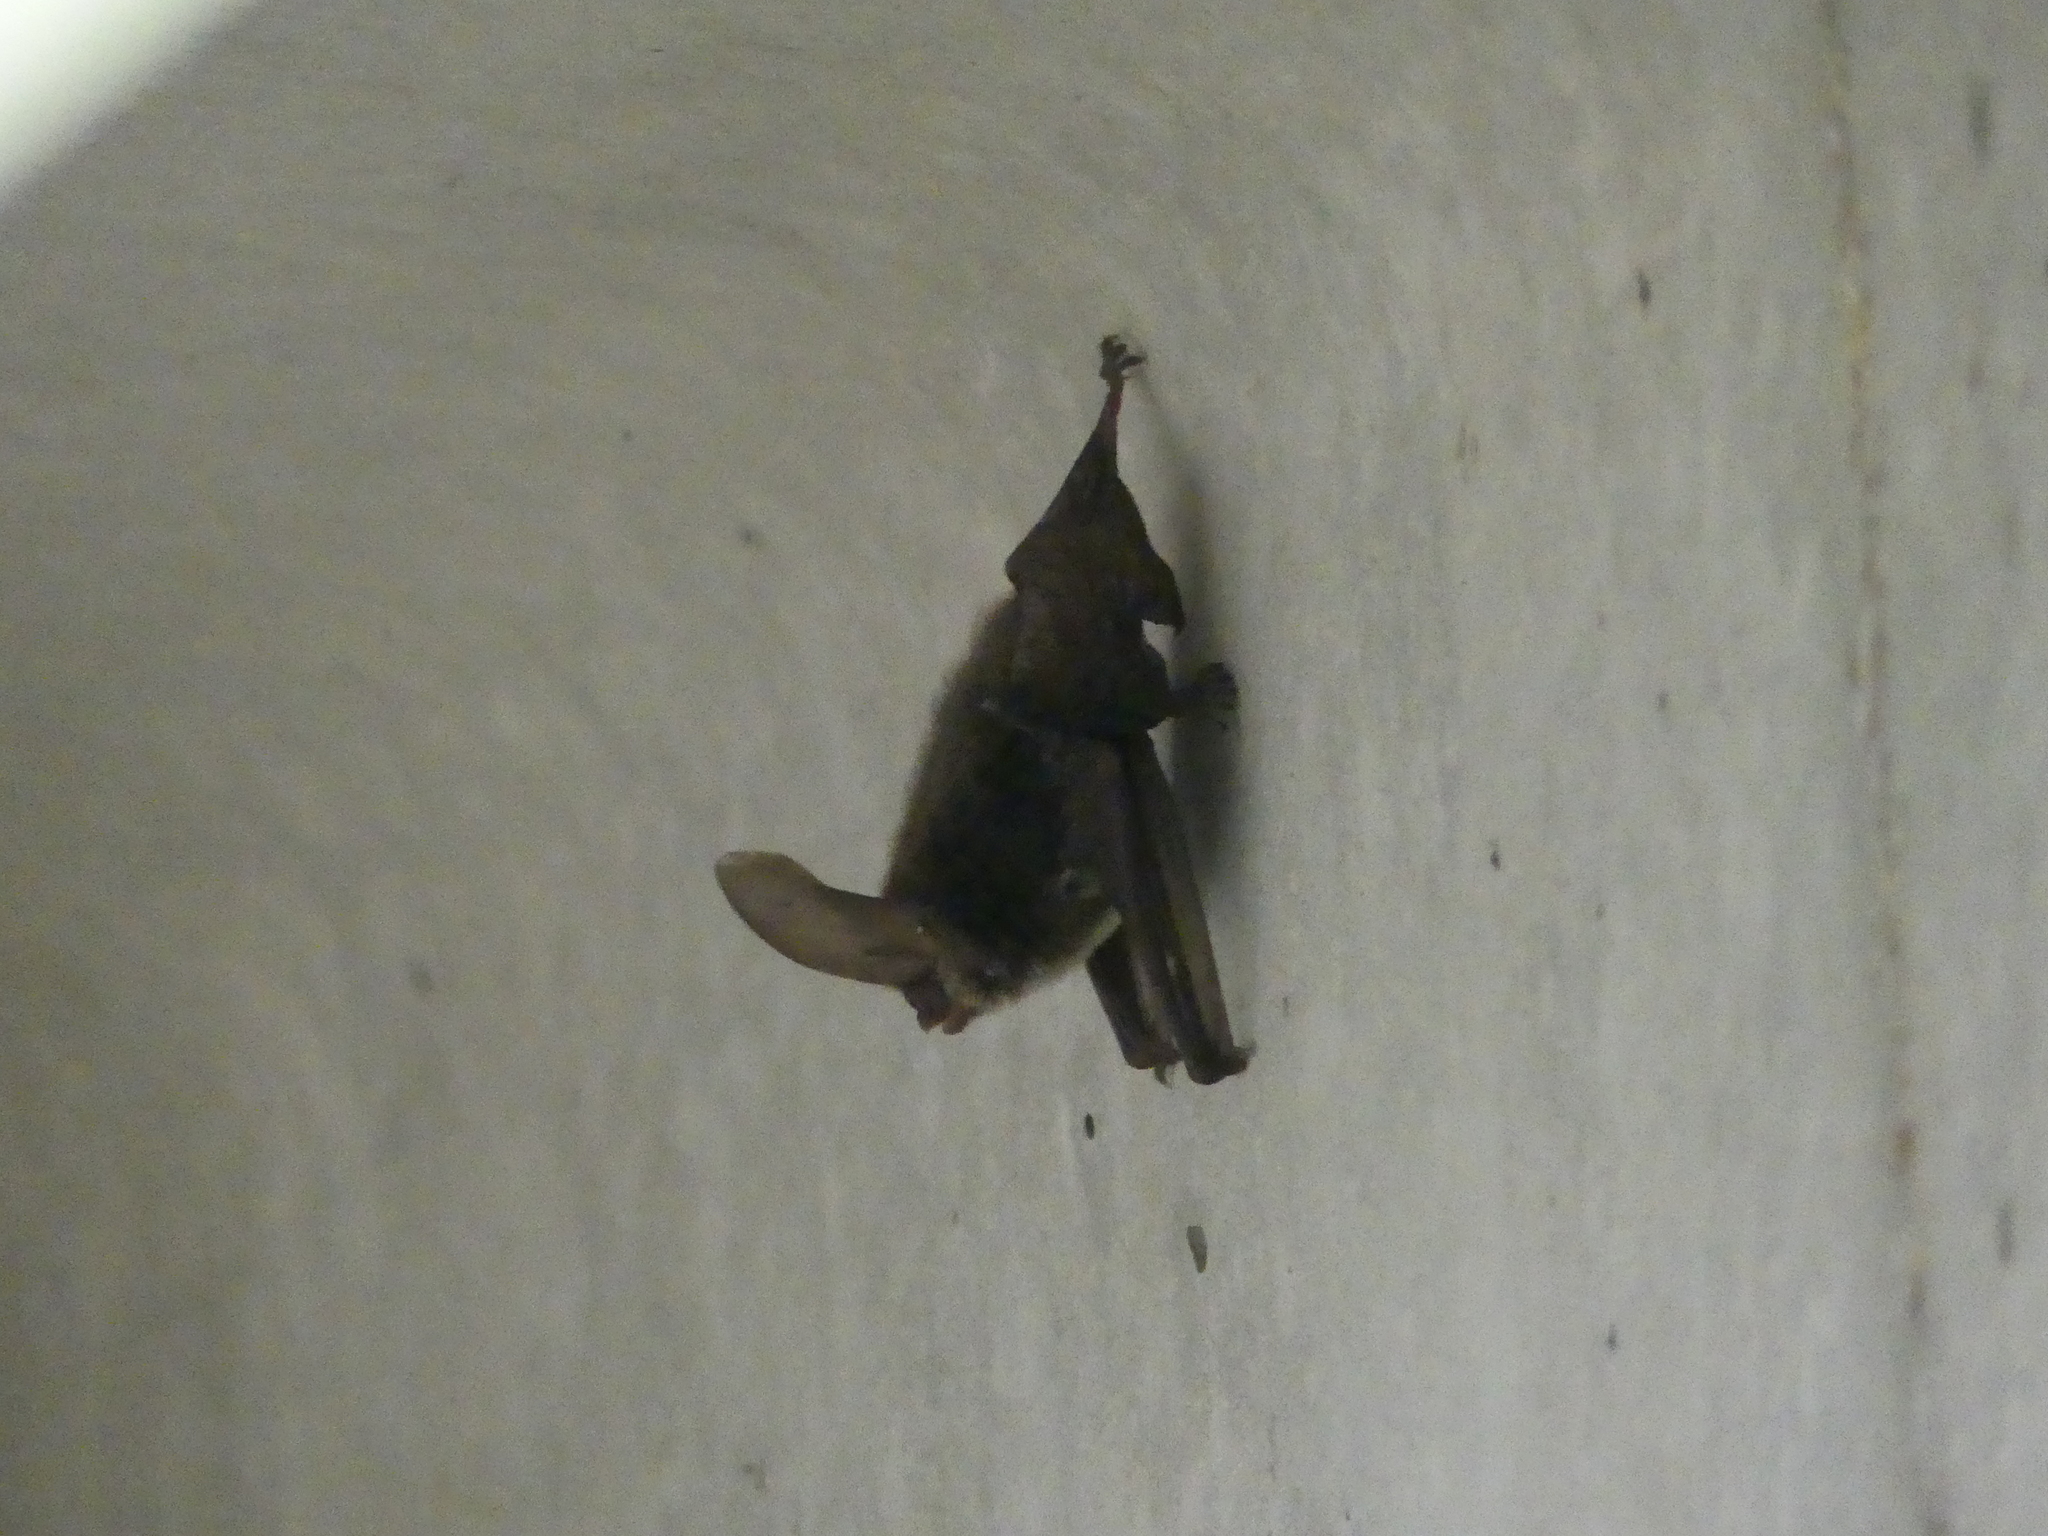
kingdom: Animalia
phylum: Chordata
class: Mammalia
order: Chiroptera
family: Vespertilionidae
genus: Corynorhinus
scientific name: Corynorhinus rafinesquii
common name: Rafinesque's big-eared bat
